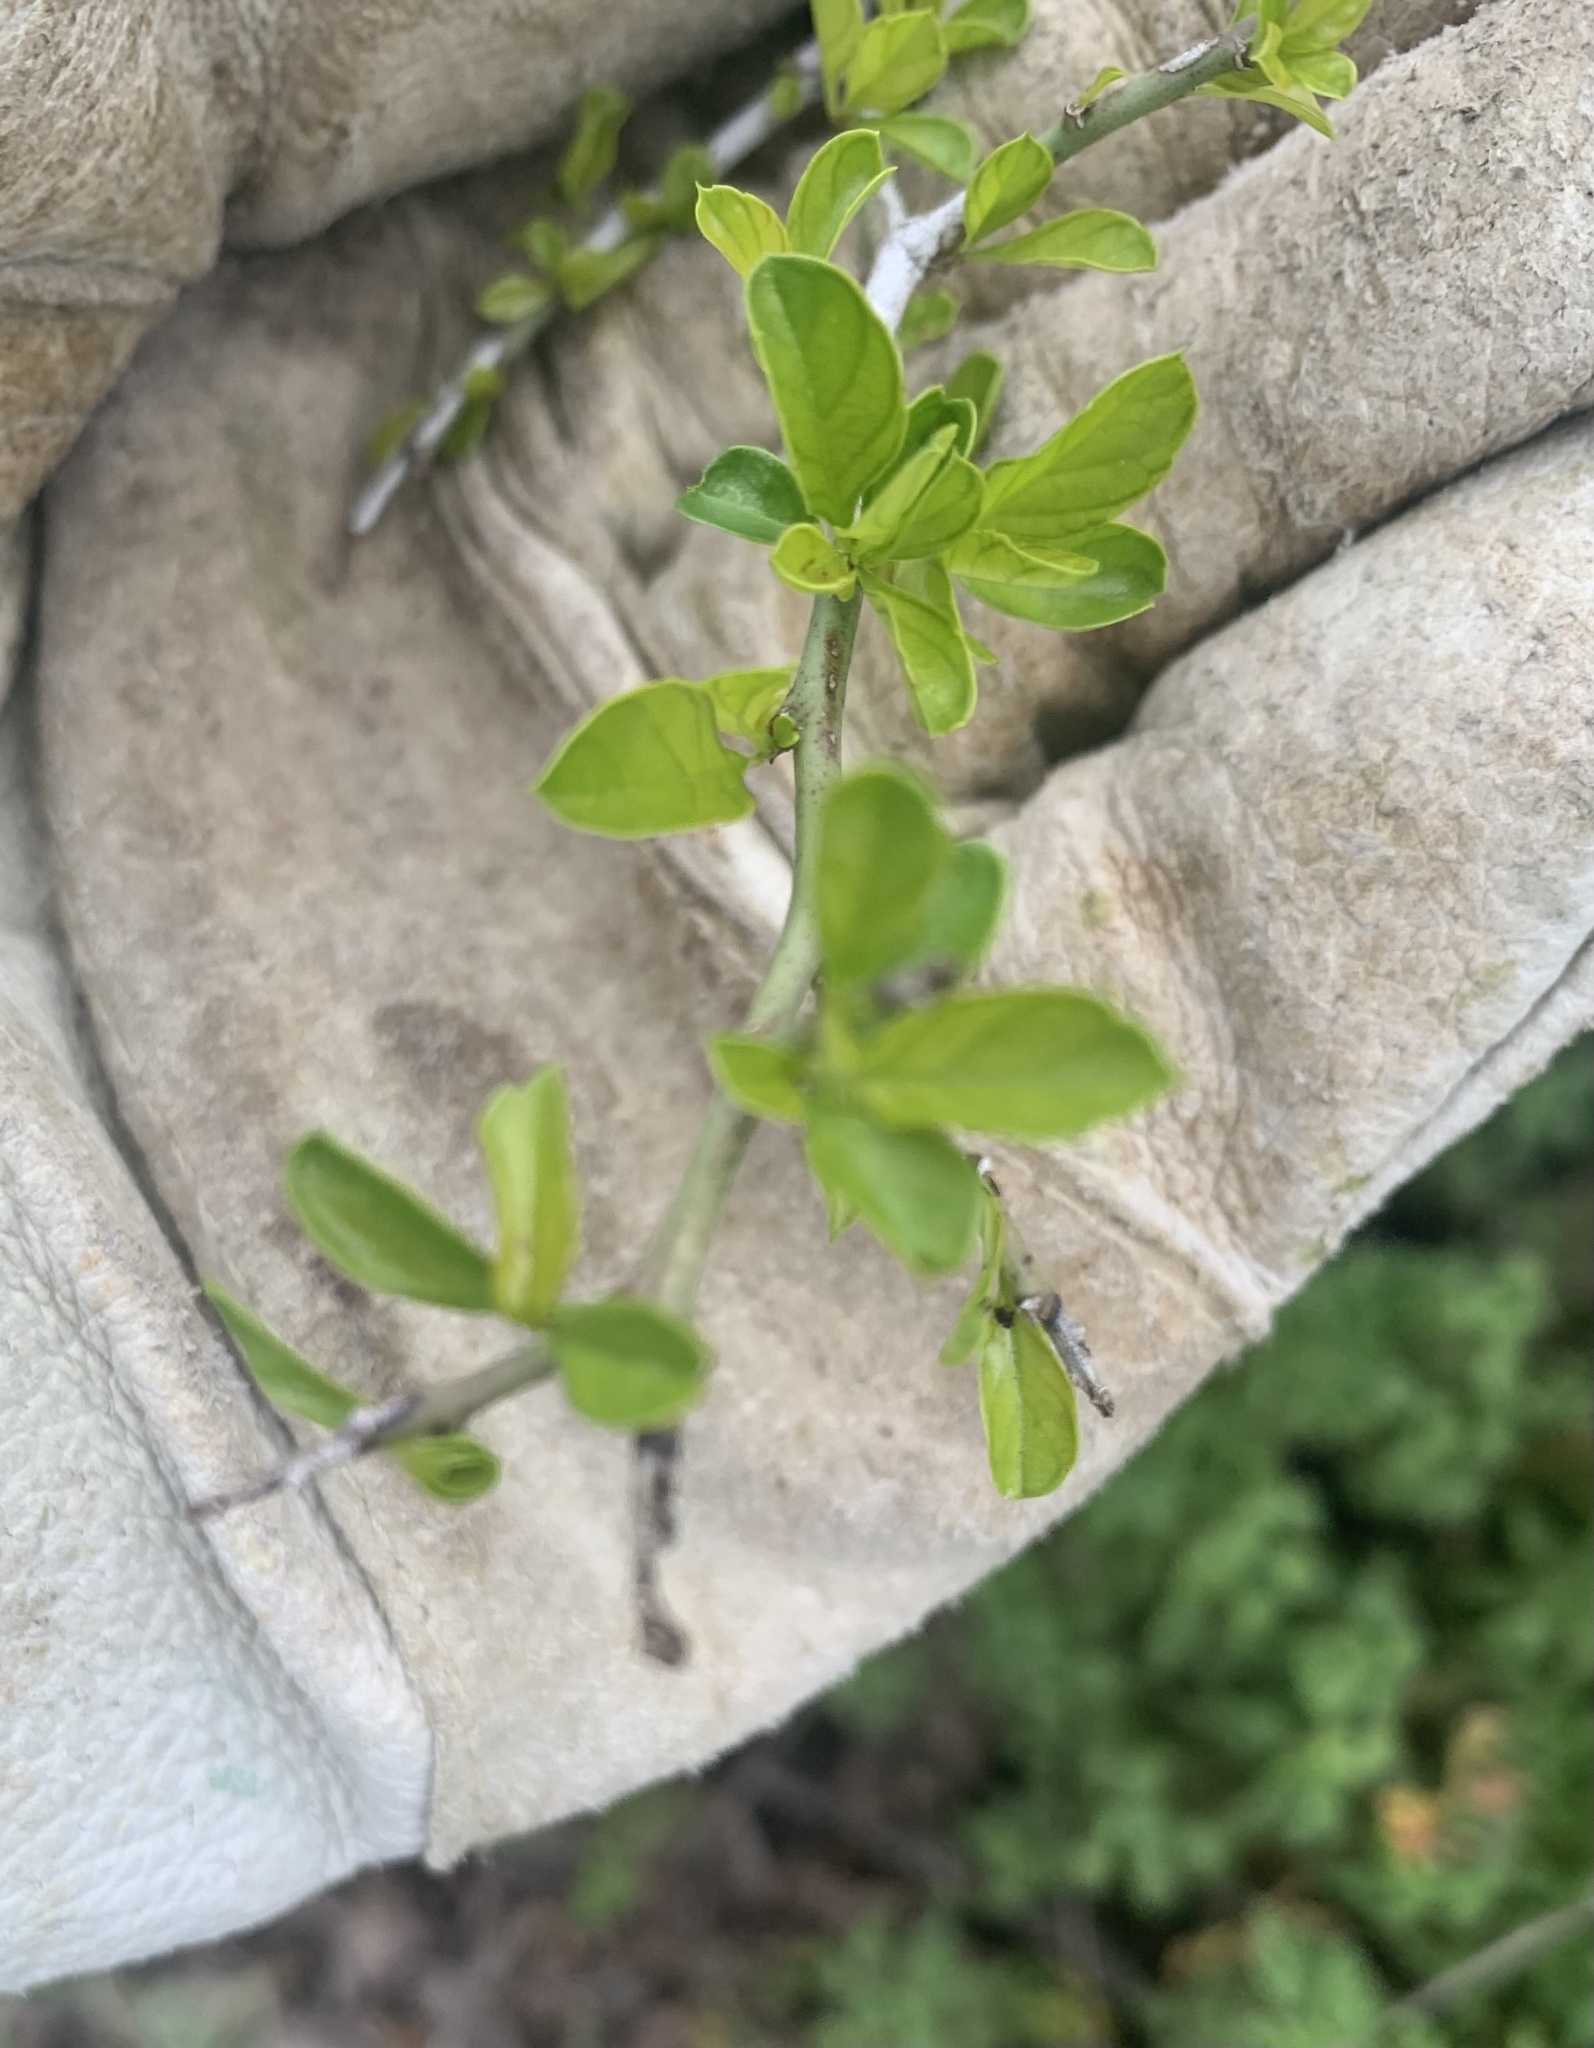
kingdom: Plantae
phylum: Tracheophyta
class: Magnoliopsida
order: Rosales
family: Rhamnaceae
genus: Condalia
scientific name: Condalia hookeri
